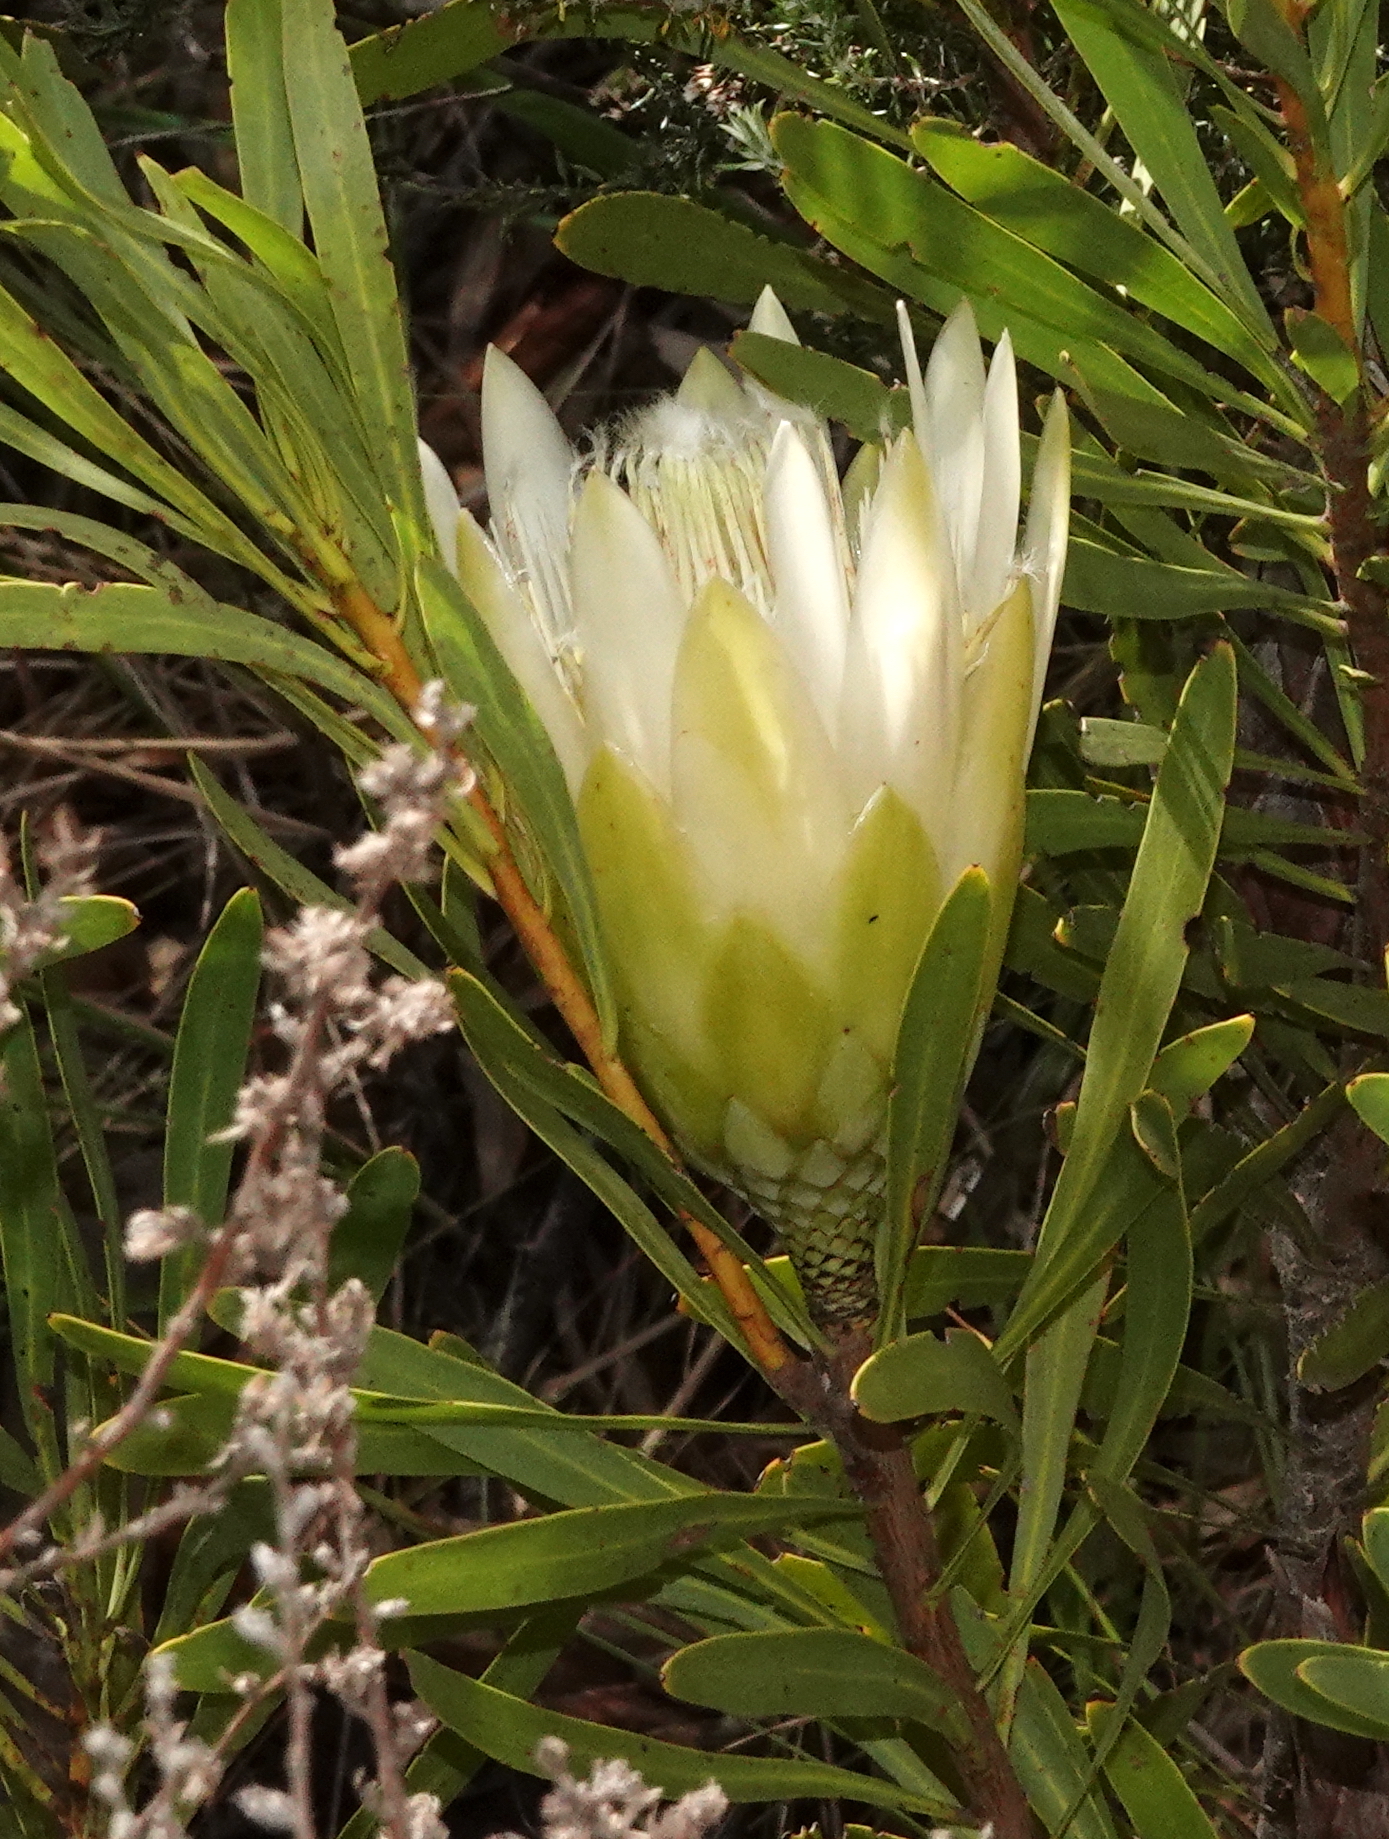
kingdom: Plantae
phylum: Tracheophyta
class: Magnoliopsida
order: Proteales
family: Proteaceae
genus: Protea
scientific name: Protea repens
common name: Sugarbush
